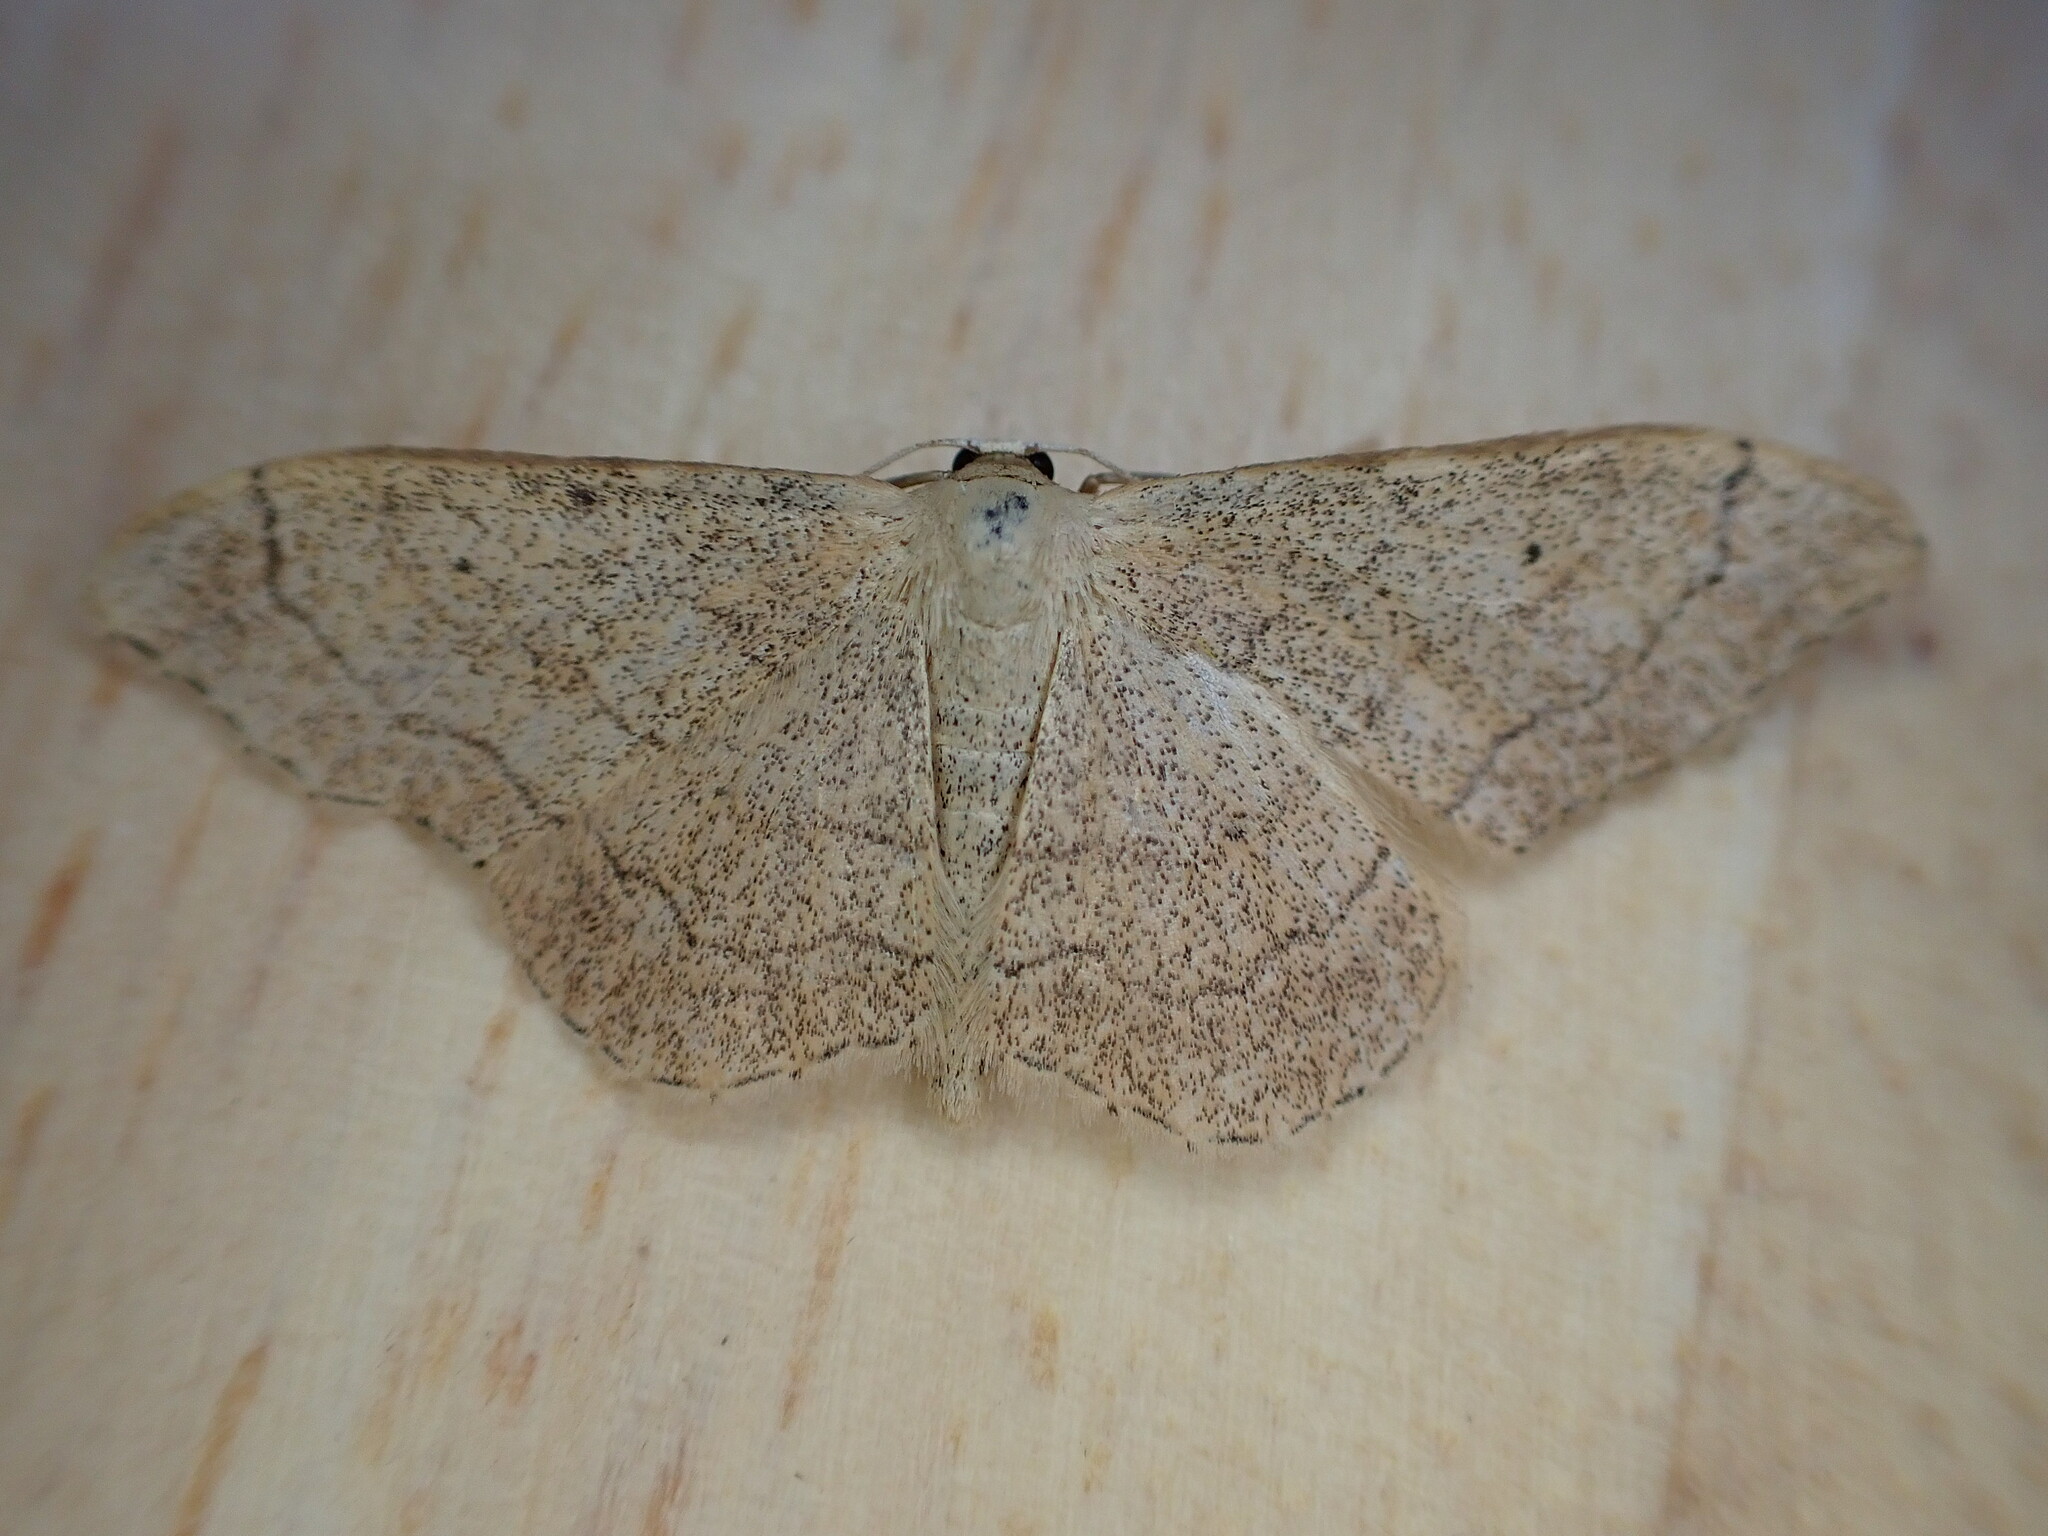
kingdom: Animalia
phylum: Arthropoda
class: Insecta
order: Lepidoptera
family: Geometridae
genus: Idaea
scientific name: Idaea aversata
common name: Riband wave
